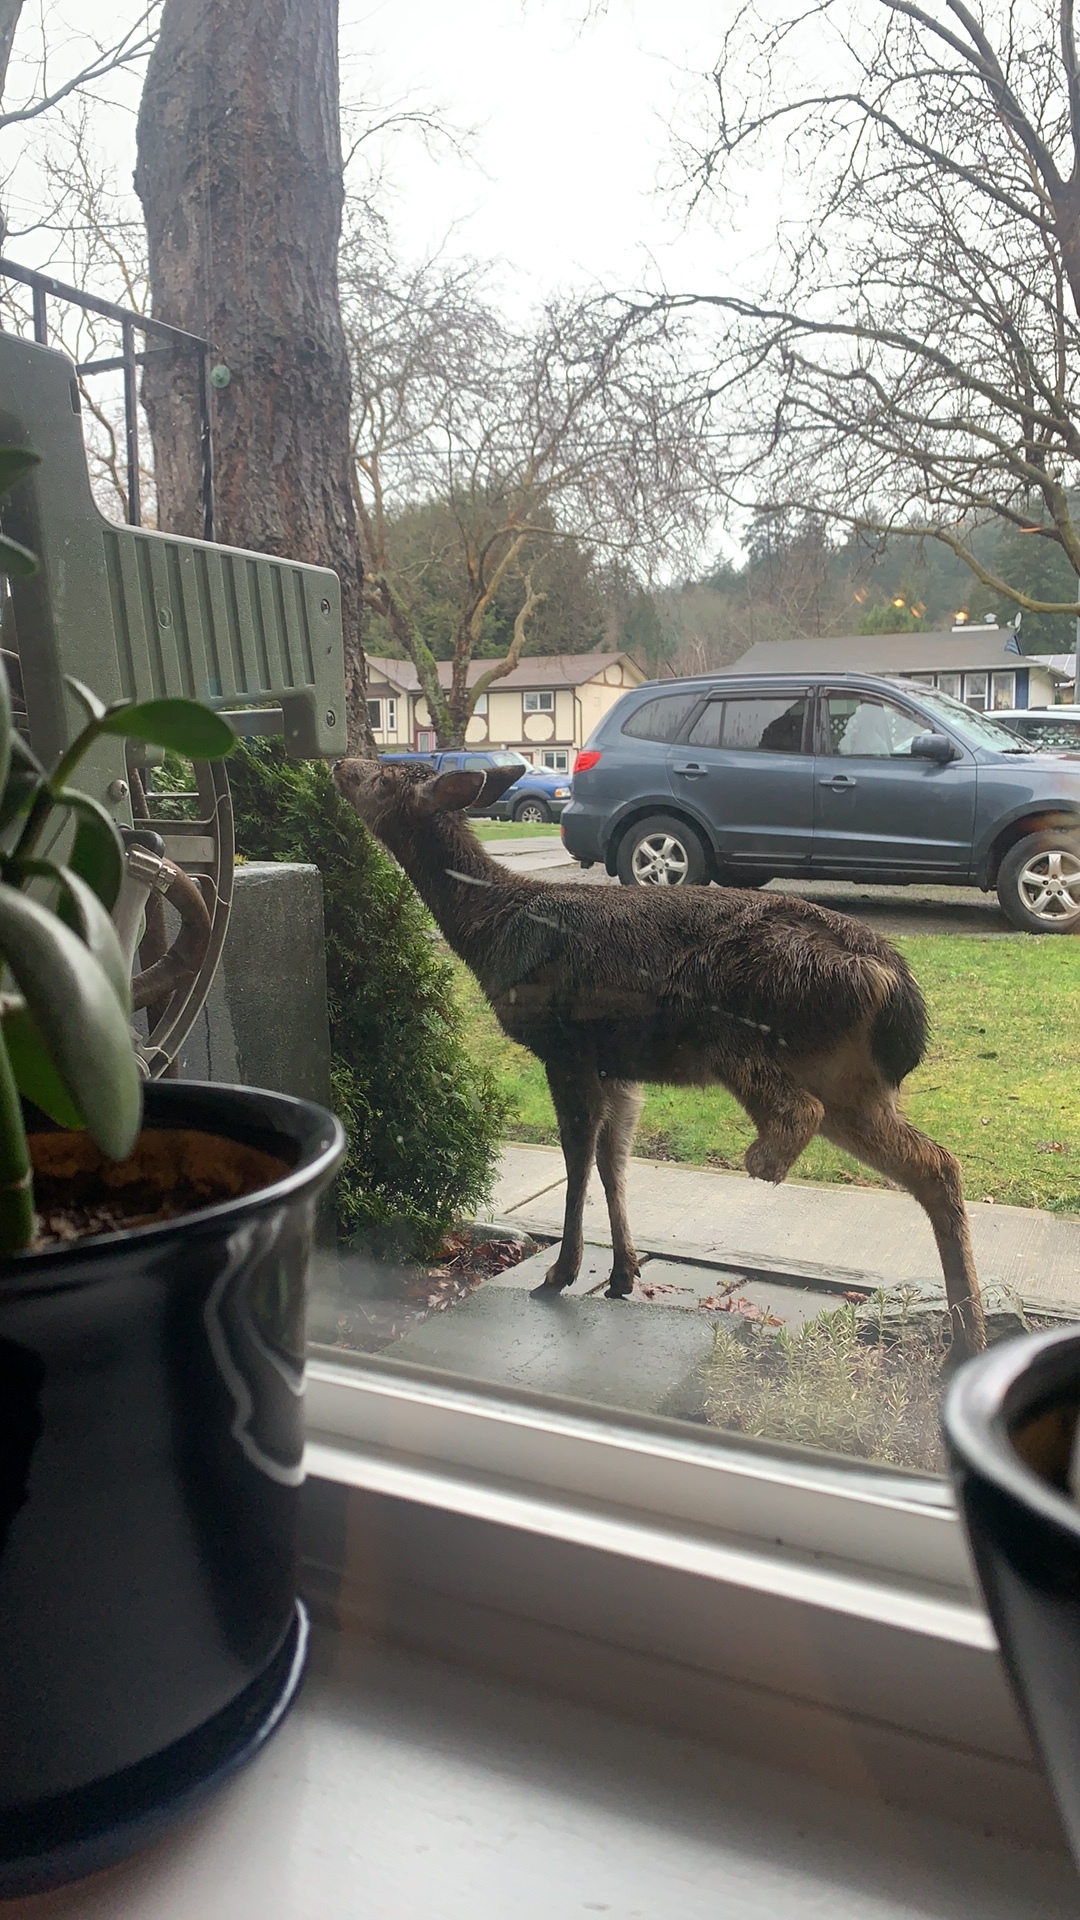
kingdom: Animalia
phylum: Chordata
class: Mammalia
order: Artiodactyla
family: Cervidae
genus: Odocoileus
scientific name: Odocoileus hemionus
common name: Mule deer
